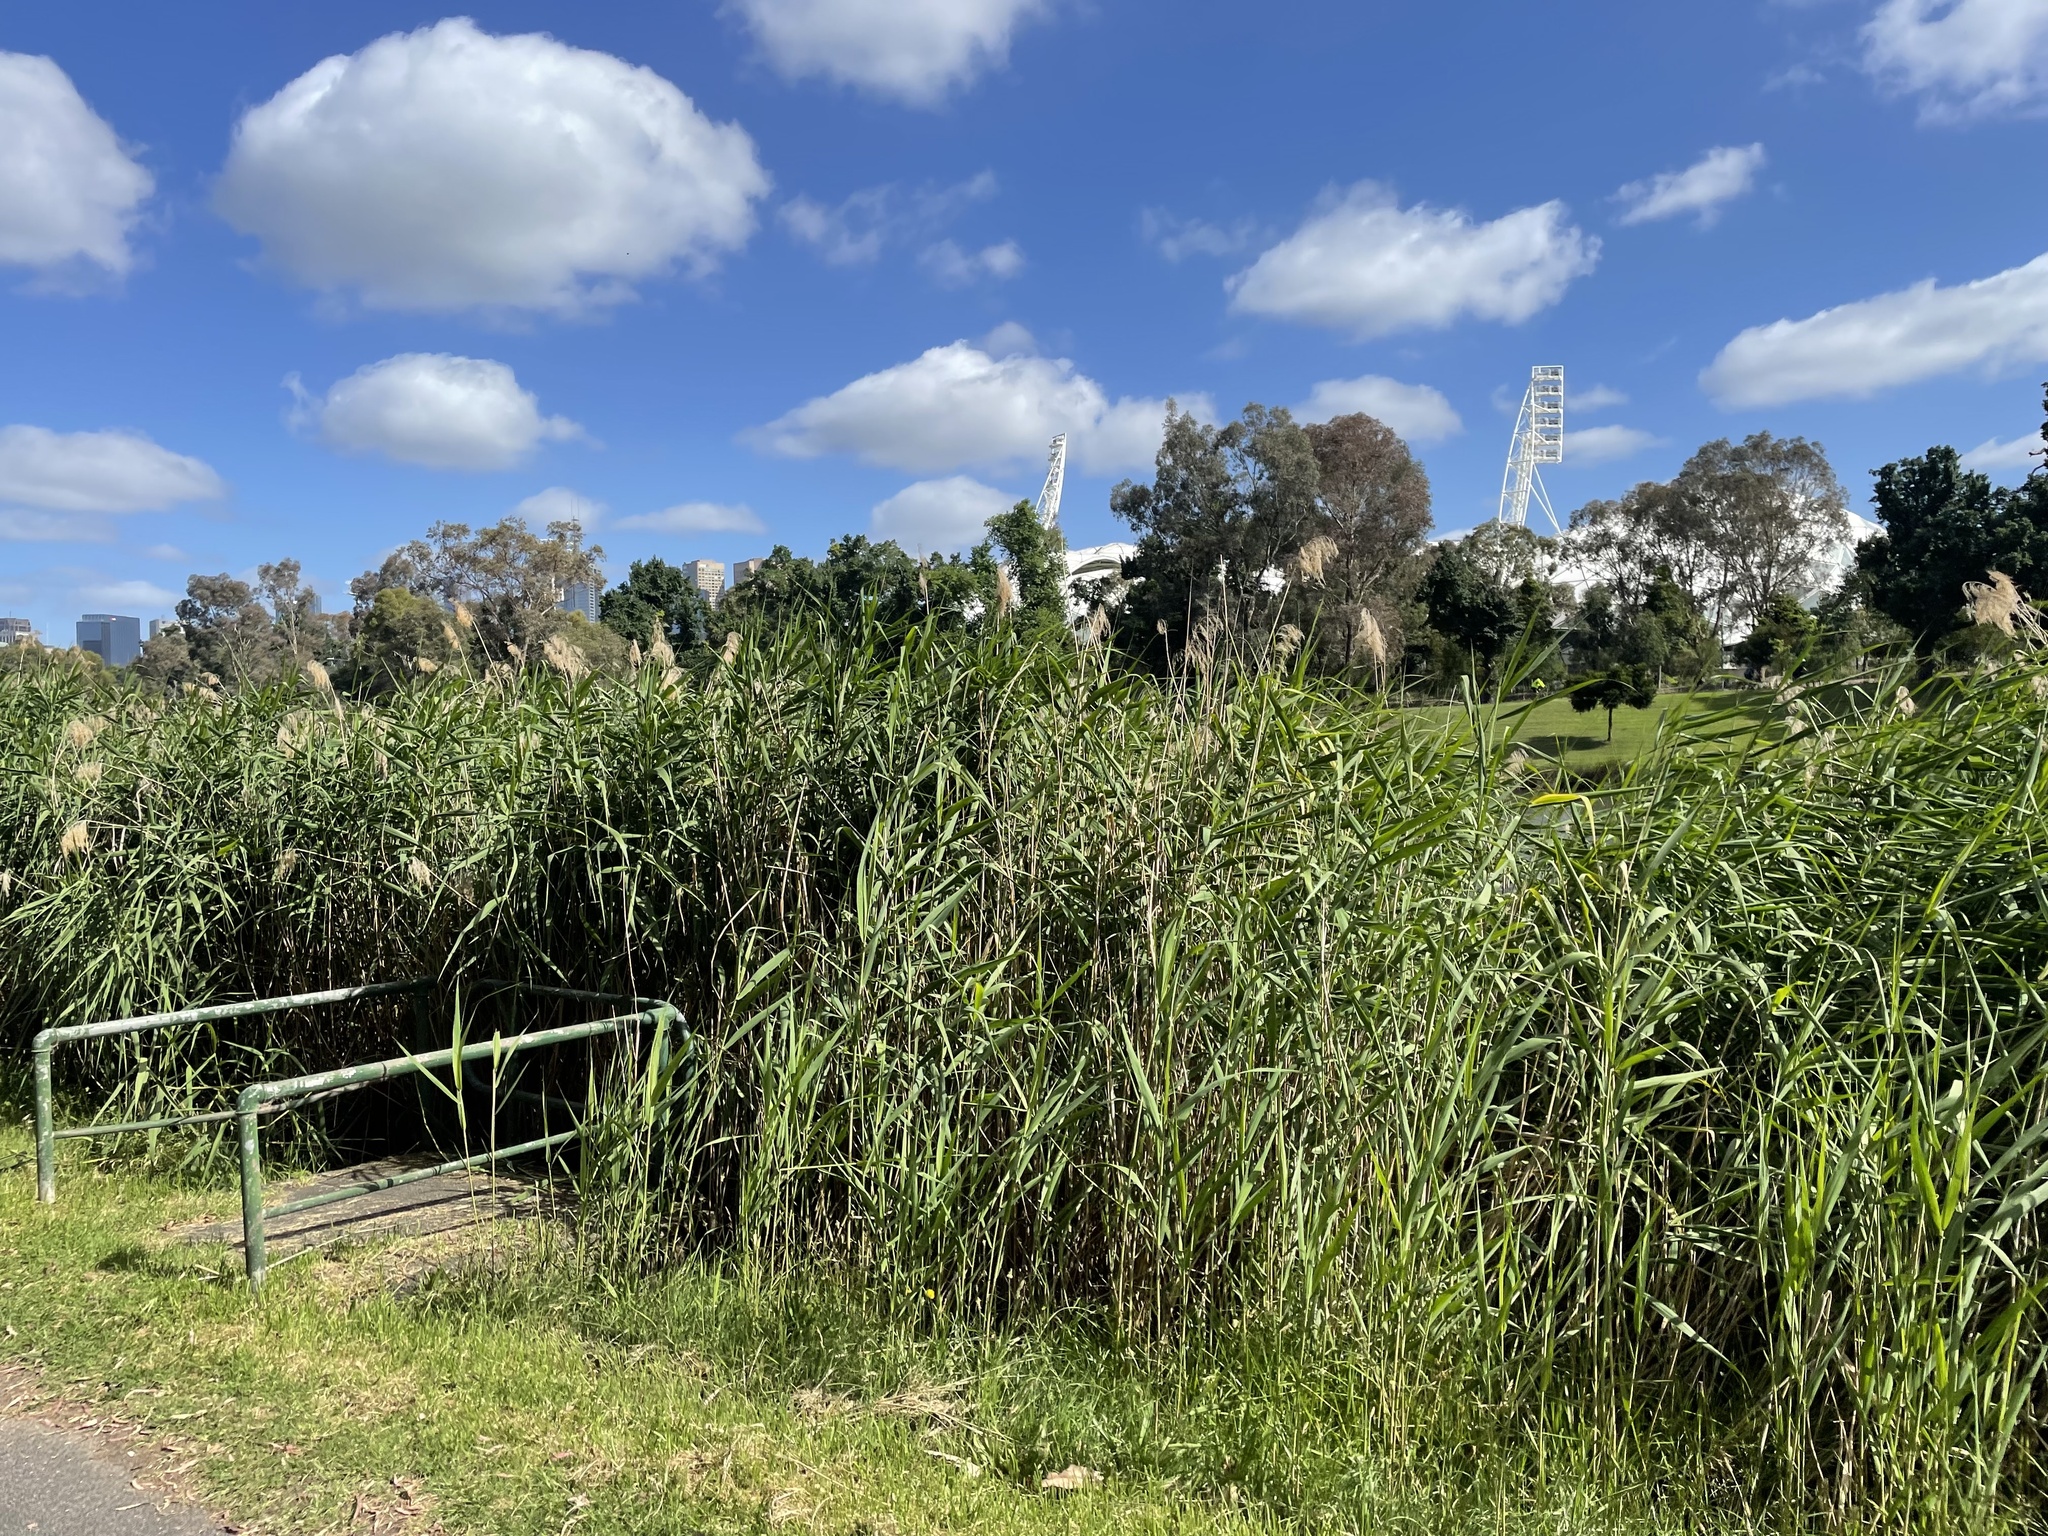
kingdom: Plantae
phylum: Tracheophyta
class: Liliopsida
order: Poales
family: Poaceae
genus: Phragmites
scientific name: Phragmites australis
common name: Common reed
